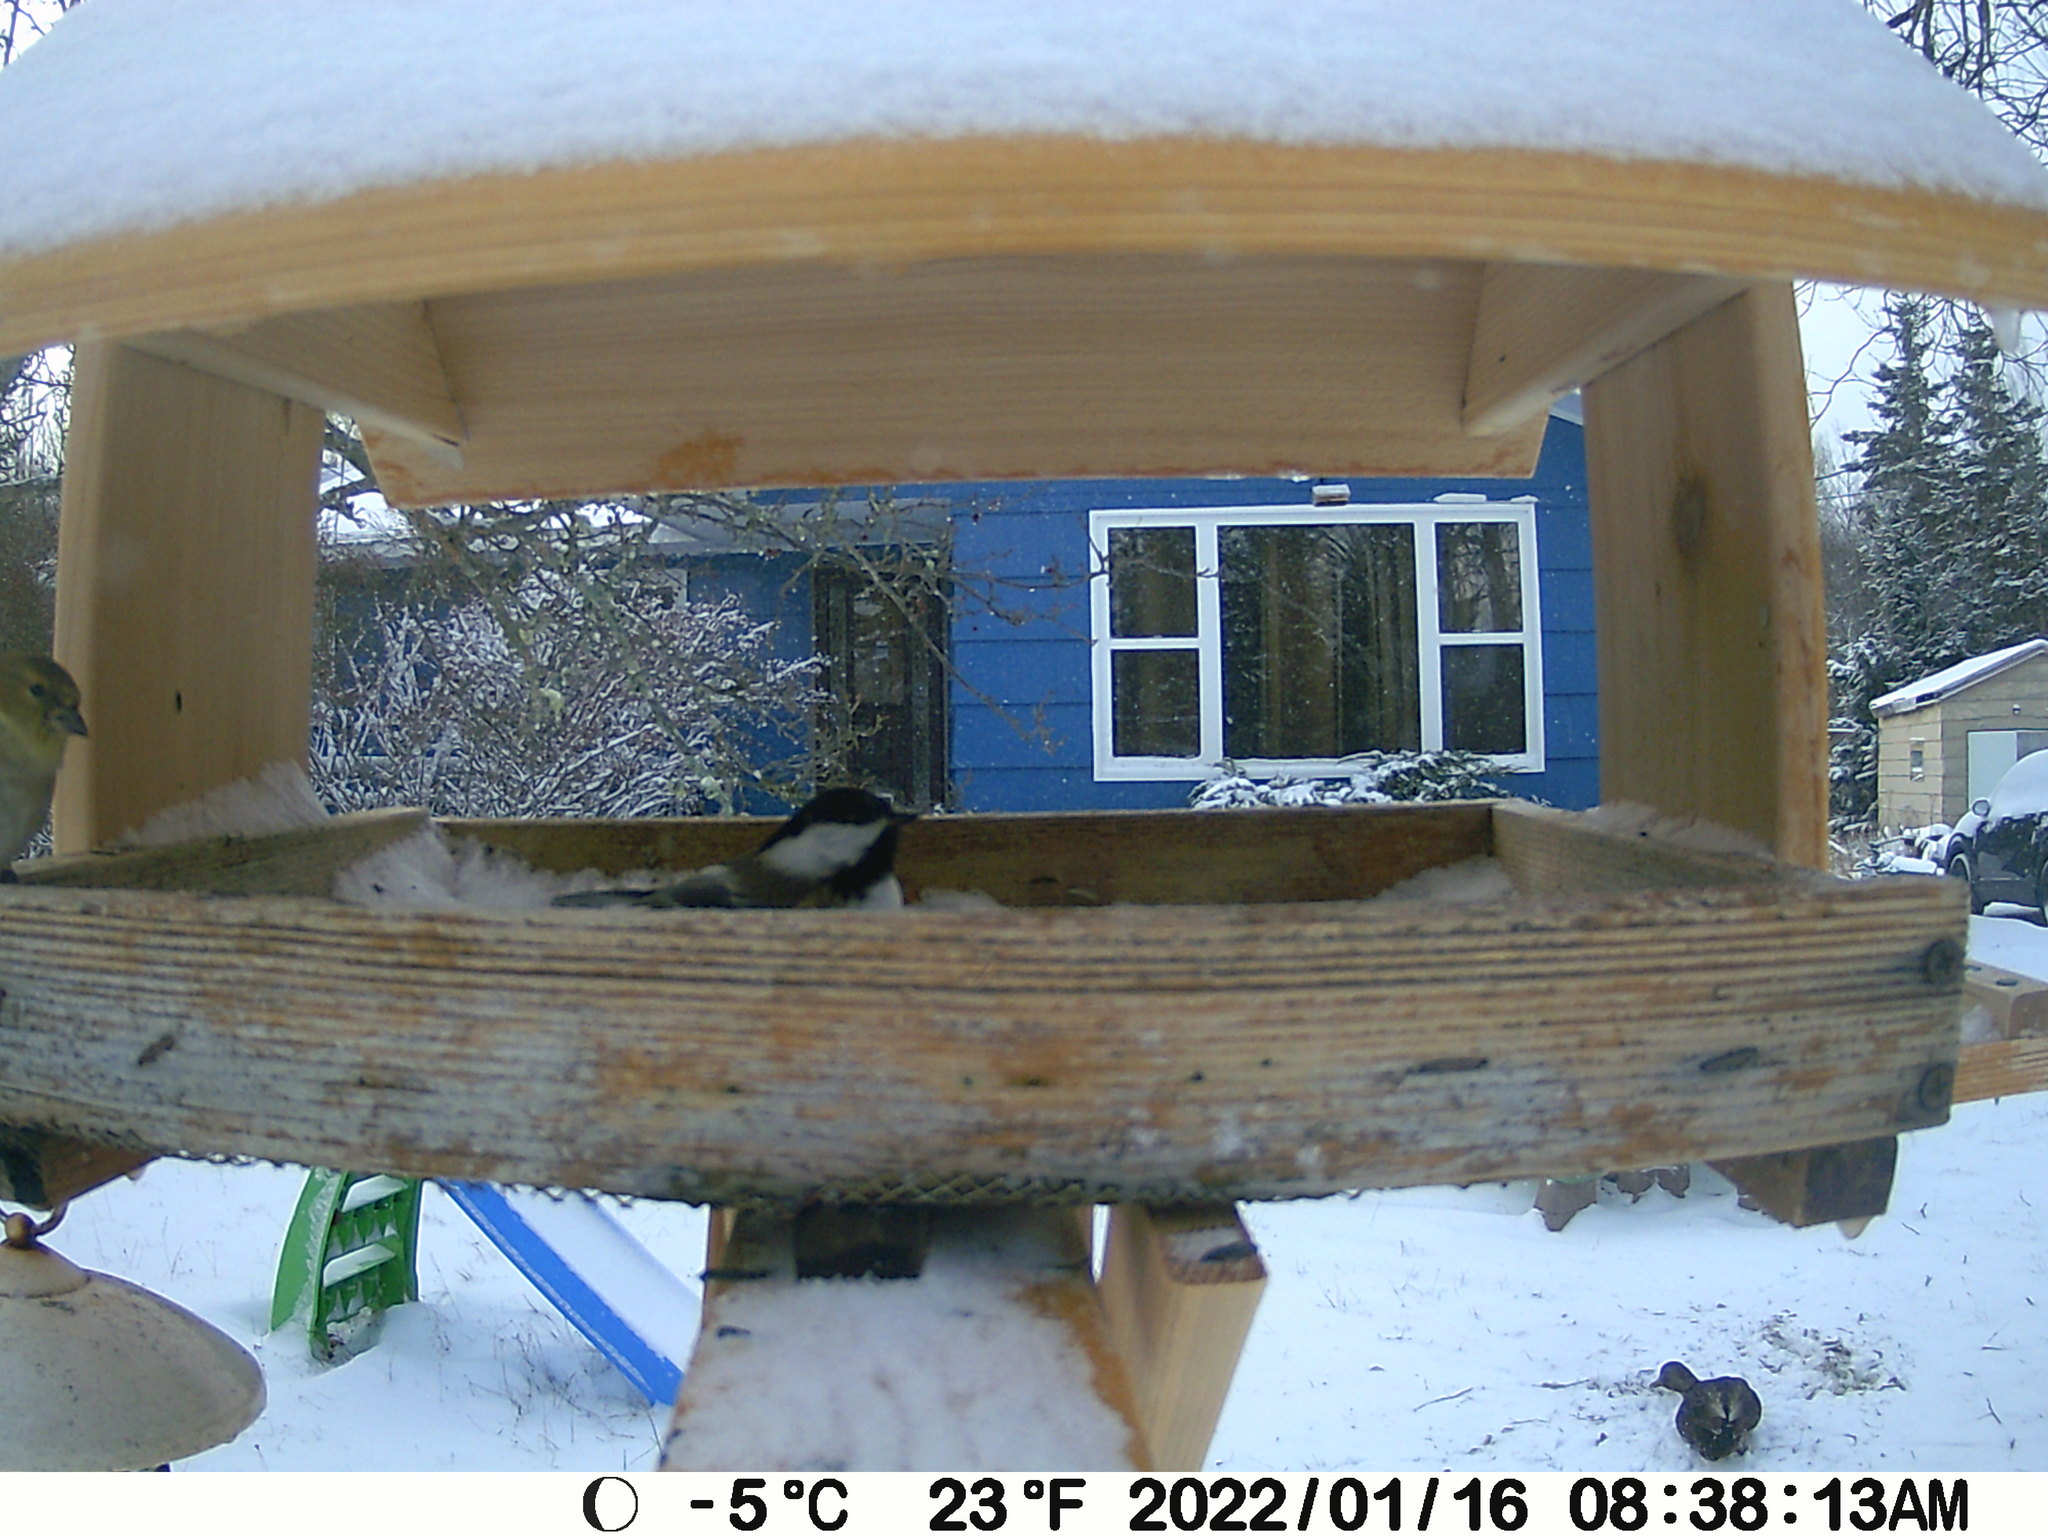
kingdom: Animalia
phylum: Chordata
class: Aves
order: Anseriformes
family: Anatidae
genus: Anas
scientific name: Anas rubripes
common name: American black duck
